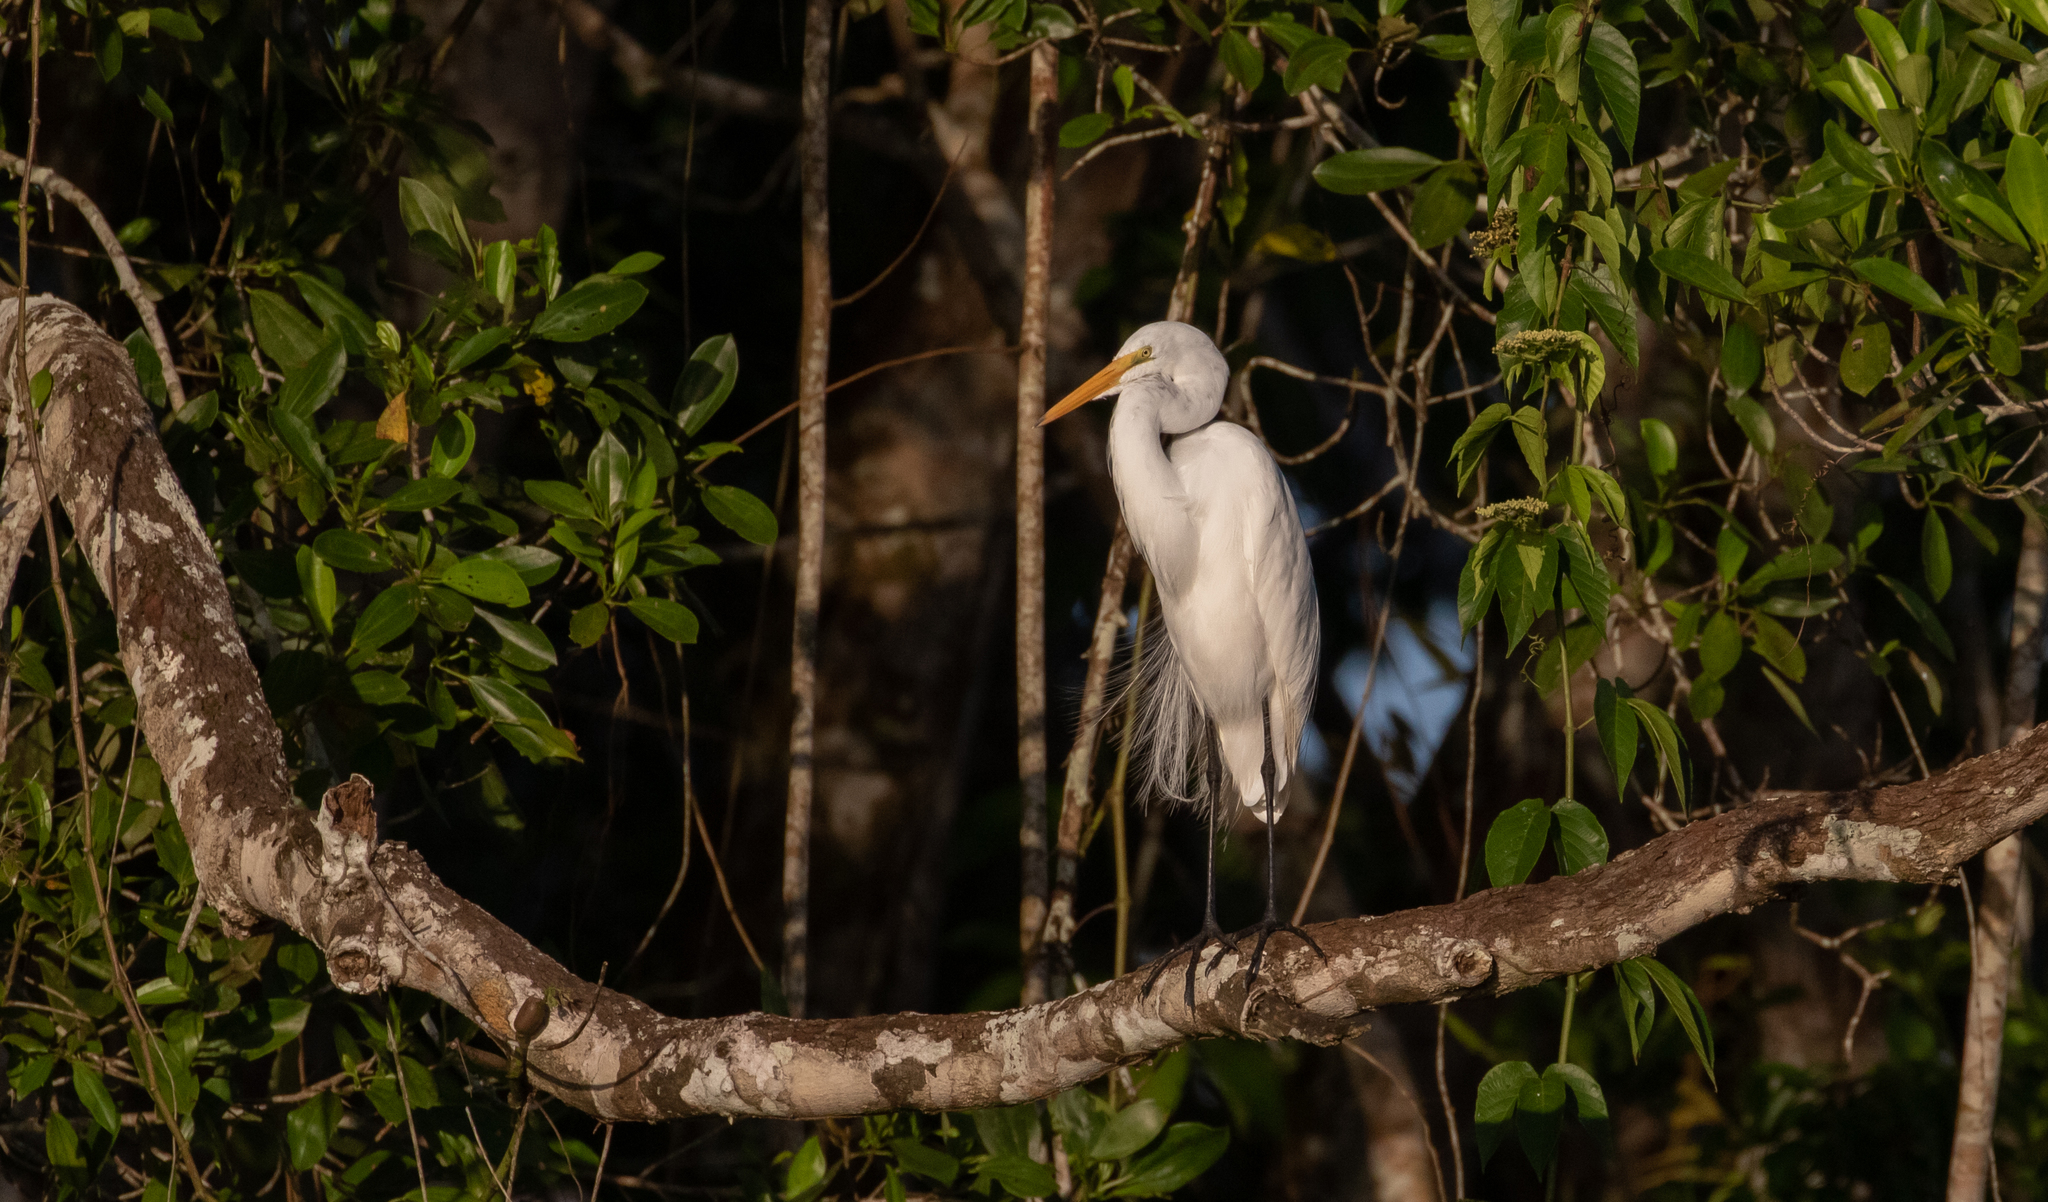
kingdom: Animalia
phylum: Chordata
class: Aves
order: Pelecaniformes
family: Ardeidae
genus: Ardea
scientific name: Ardea alba
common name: Great egret
